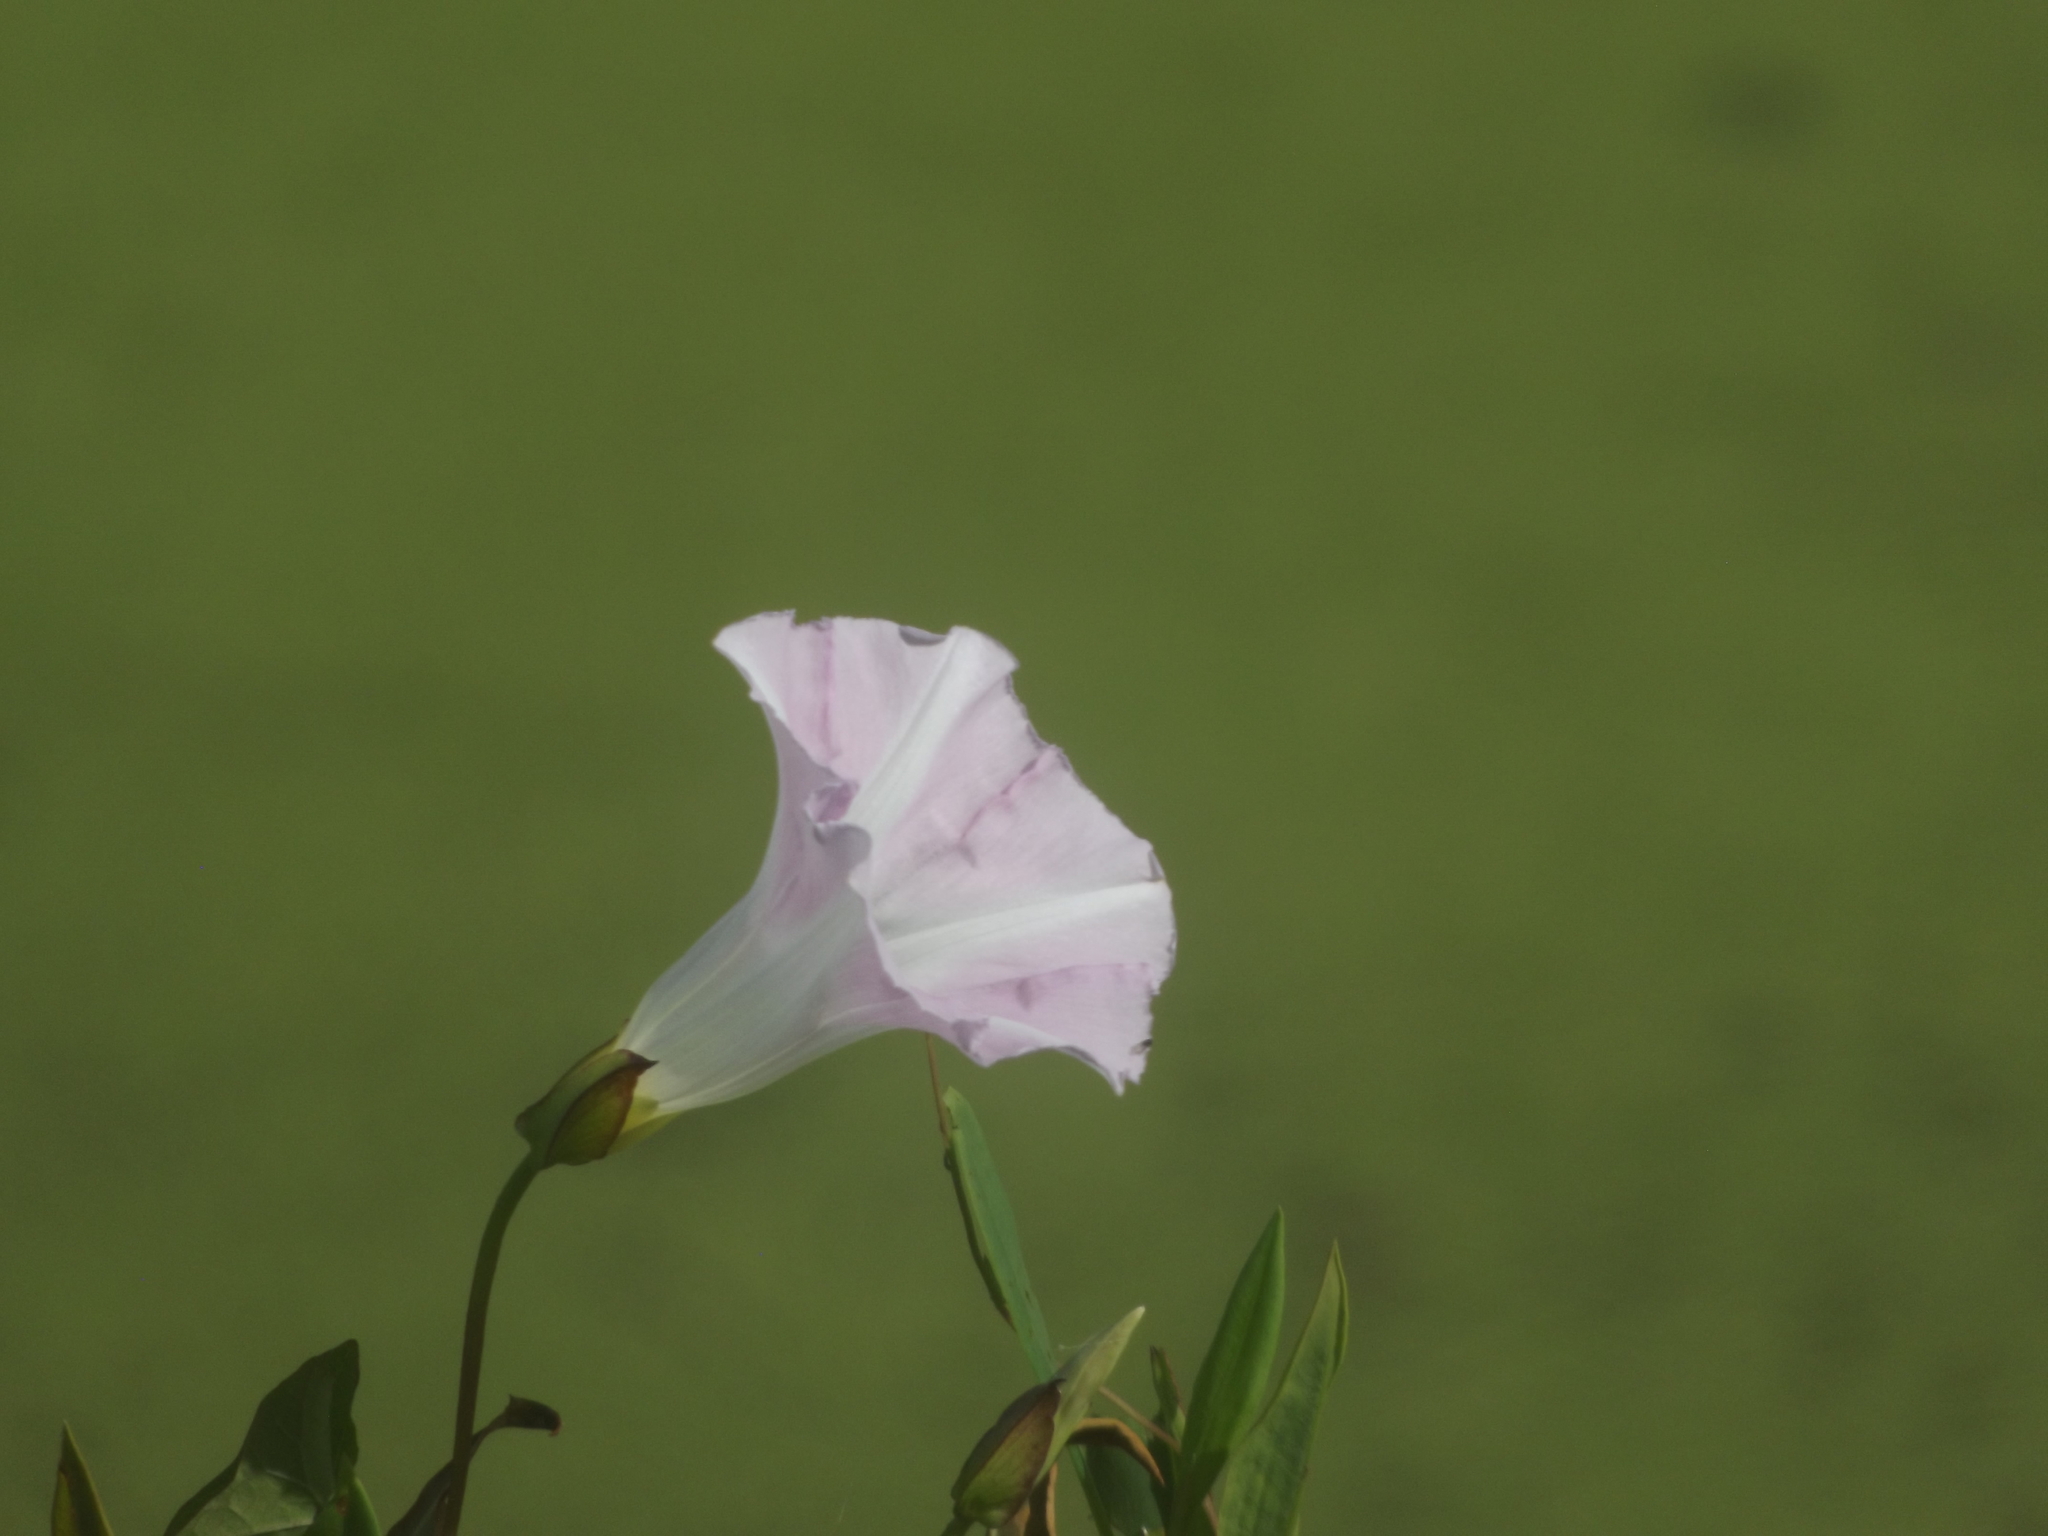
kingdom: Plantae
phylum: Tracheophyta
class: Magnoliopsida
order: Solanales
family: Convolvulaceae
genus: Calystegia
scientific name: Calystegia sepium
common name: Hedge bindweed
